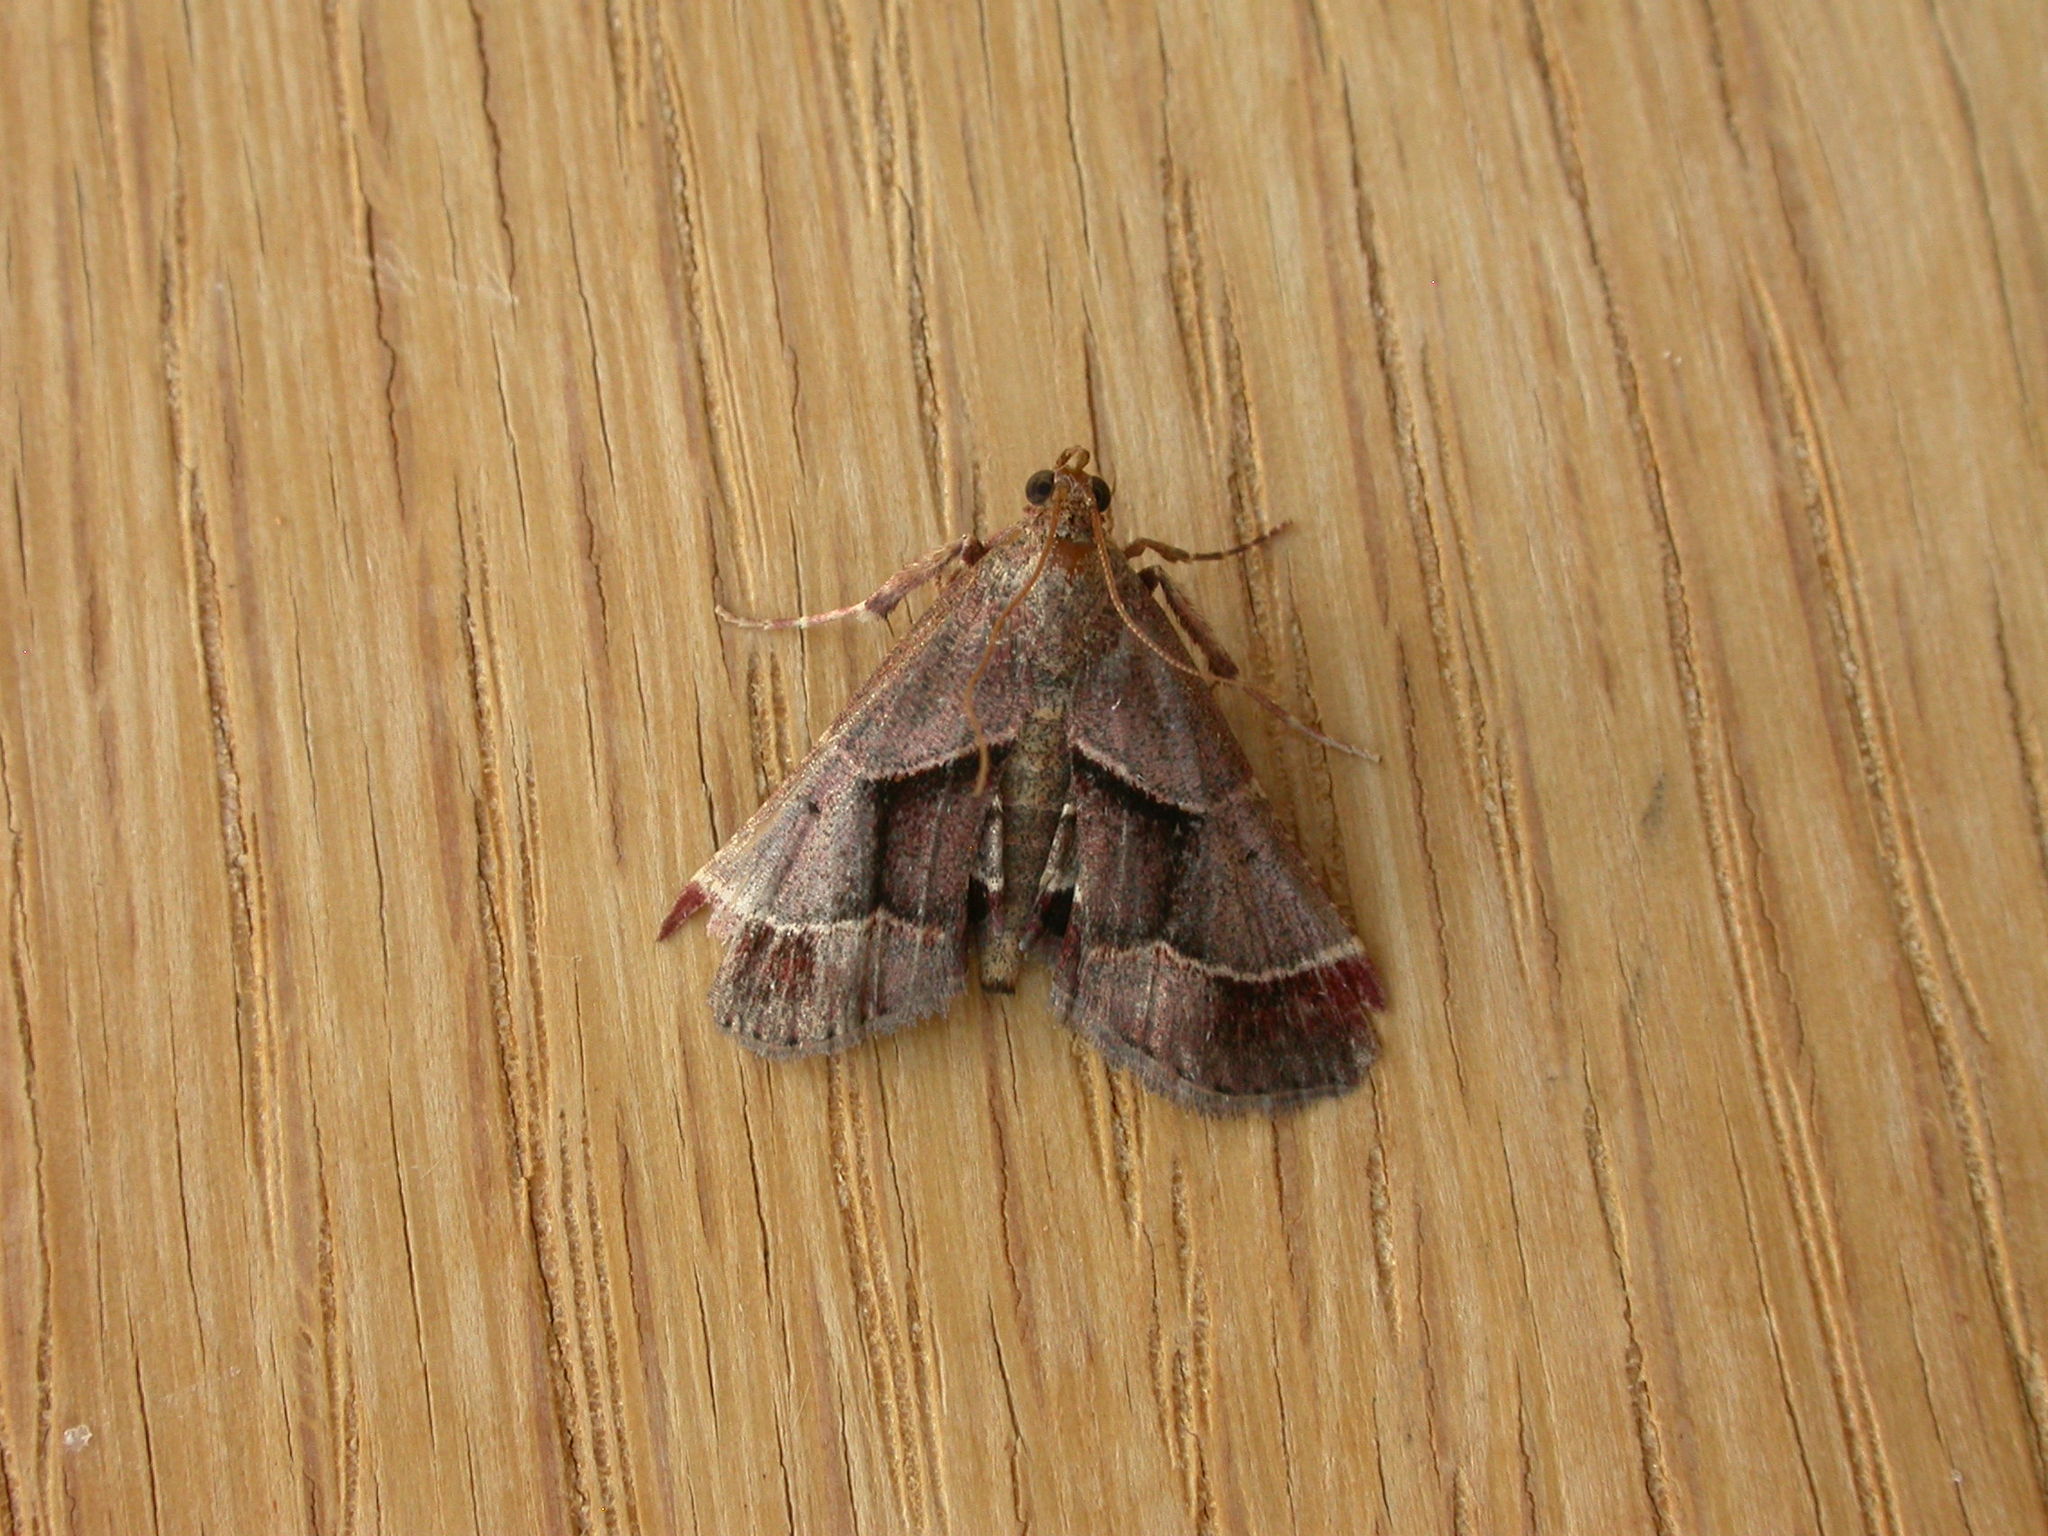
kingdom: Animalia
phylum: Arthropoda
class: Insecta
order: Lepidoptera
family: Pyralidae
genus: Gauna
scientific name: Gauna aegusalis
